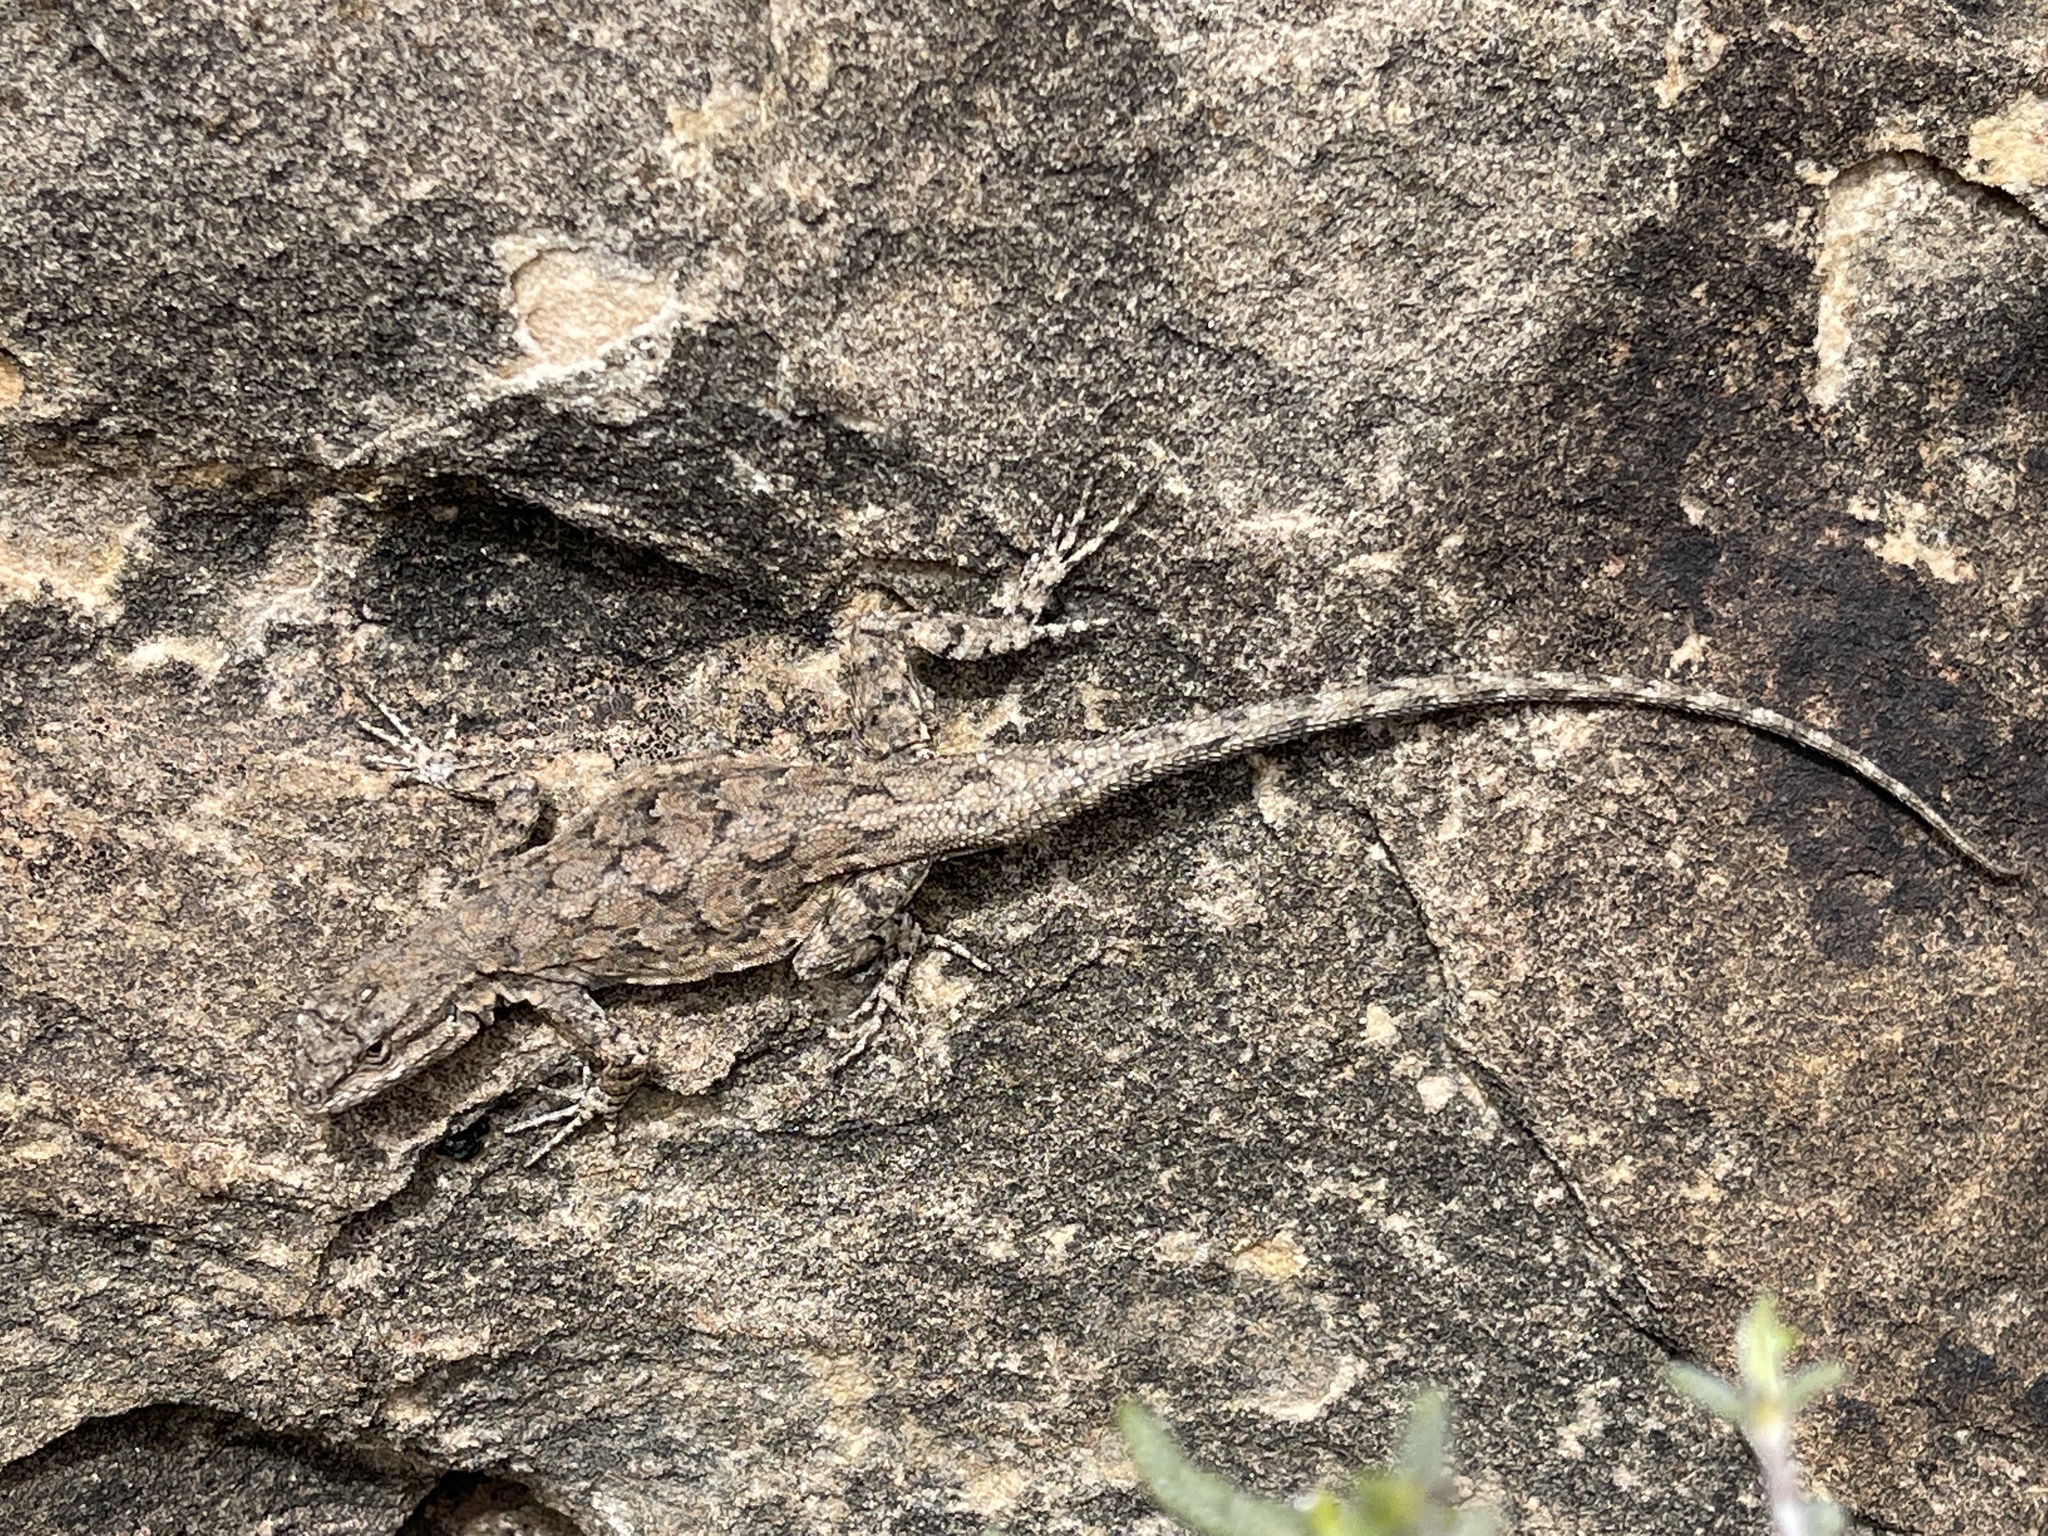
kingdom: Animalia
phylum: Chordata
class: Squamata
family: Phrynosomatidae
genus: Urosaurus
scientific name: Urosaurus ornatus
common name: Ornate tree lizard
